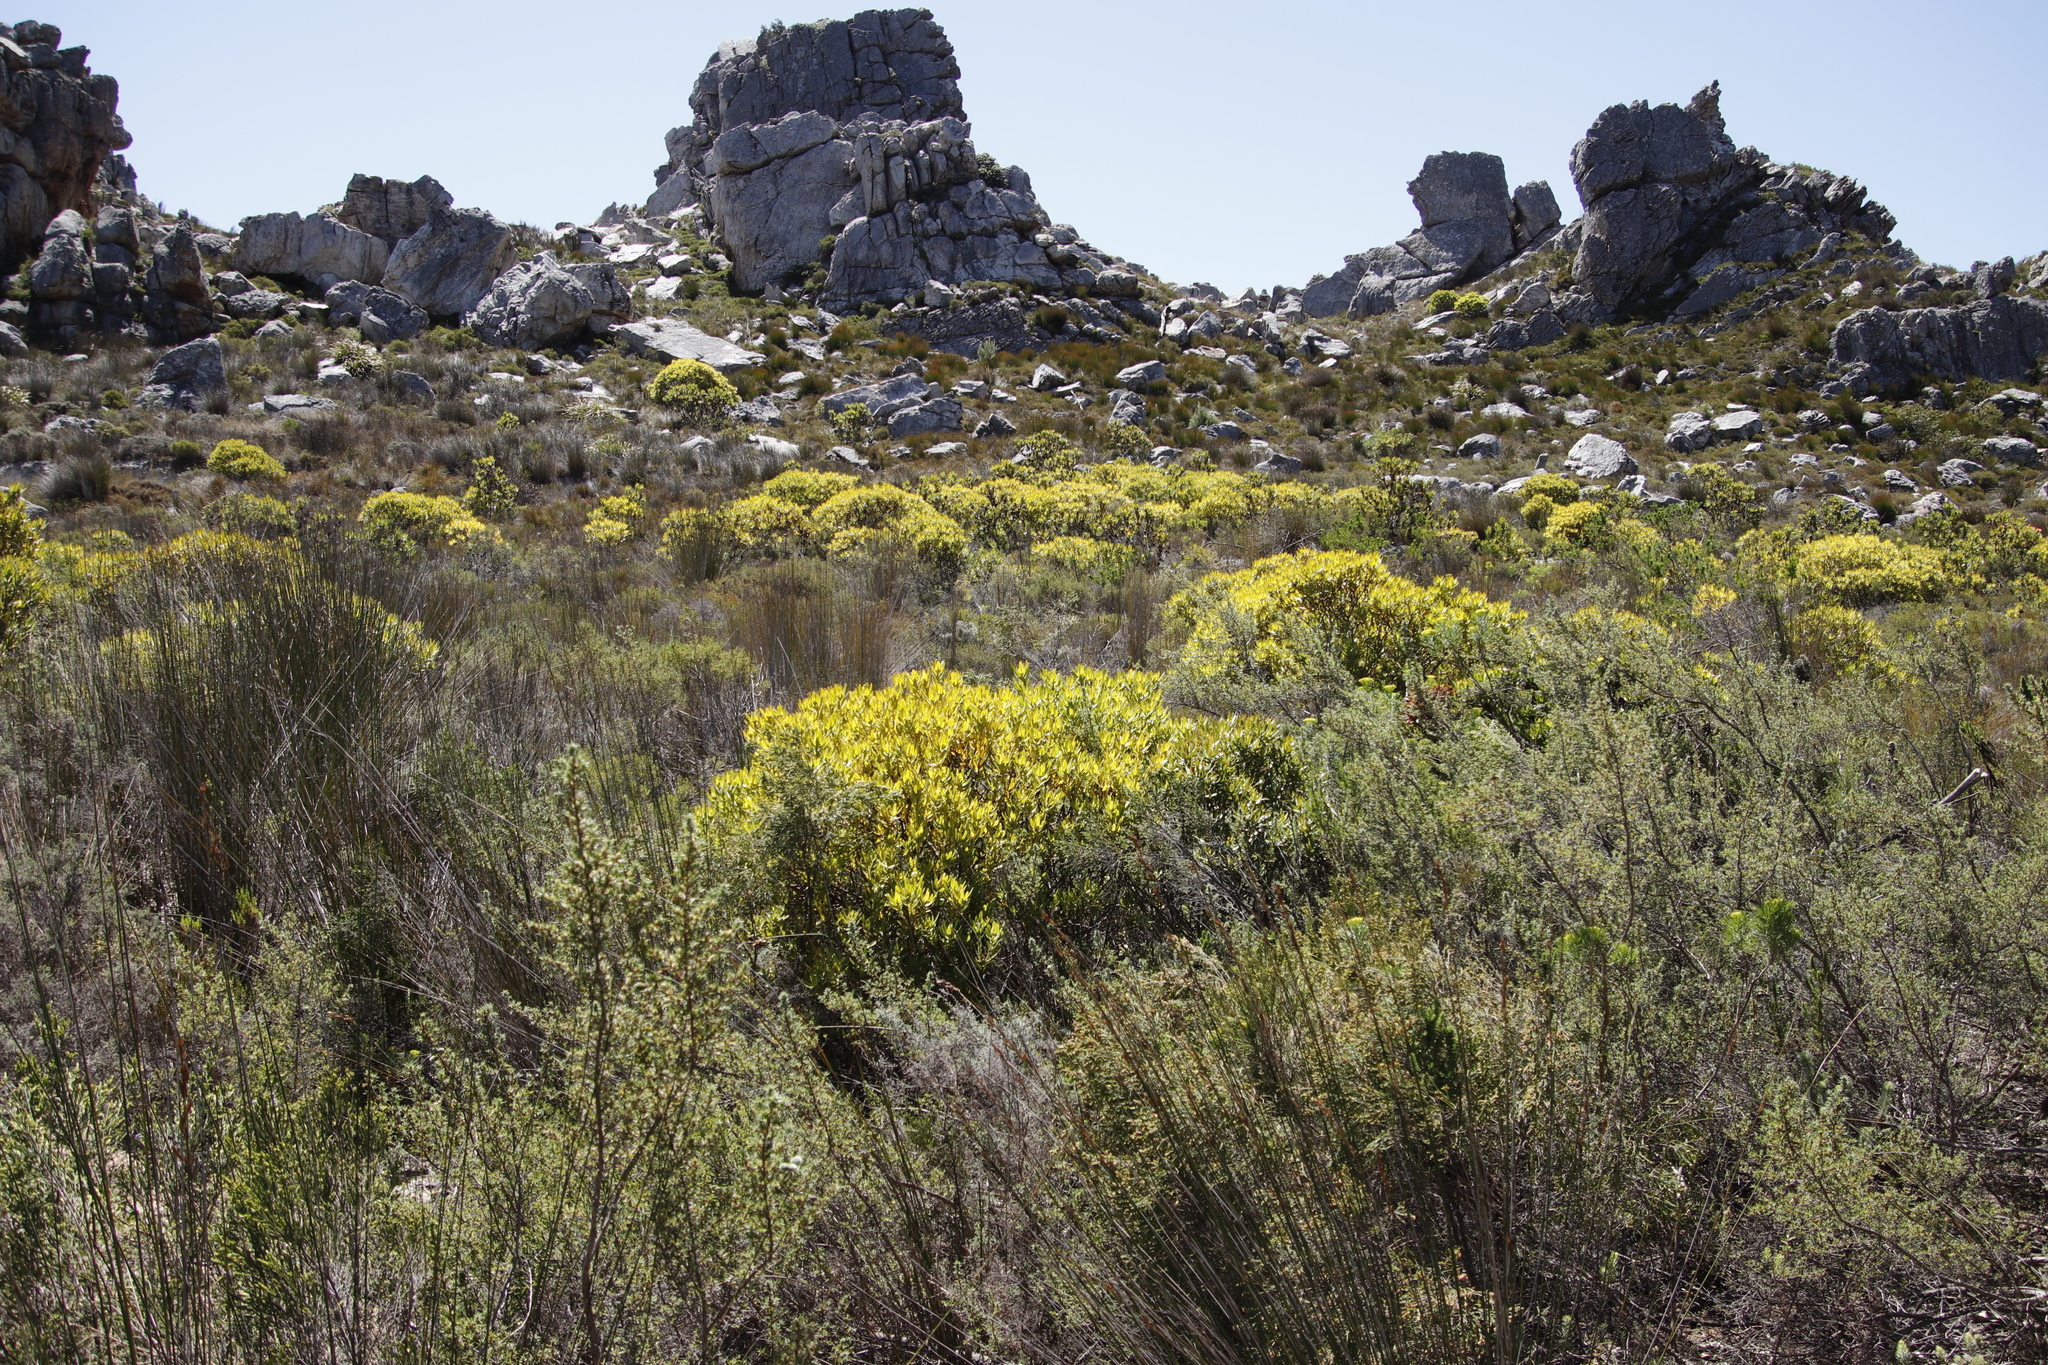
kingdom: Plantae
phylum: Tracheophyta
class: Magnoliopsida
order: Proteales
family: Proteaceae
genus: Leucadendron
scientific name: Leucadendron laureolum
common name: Golden sunshinebush
